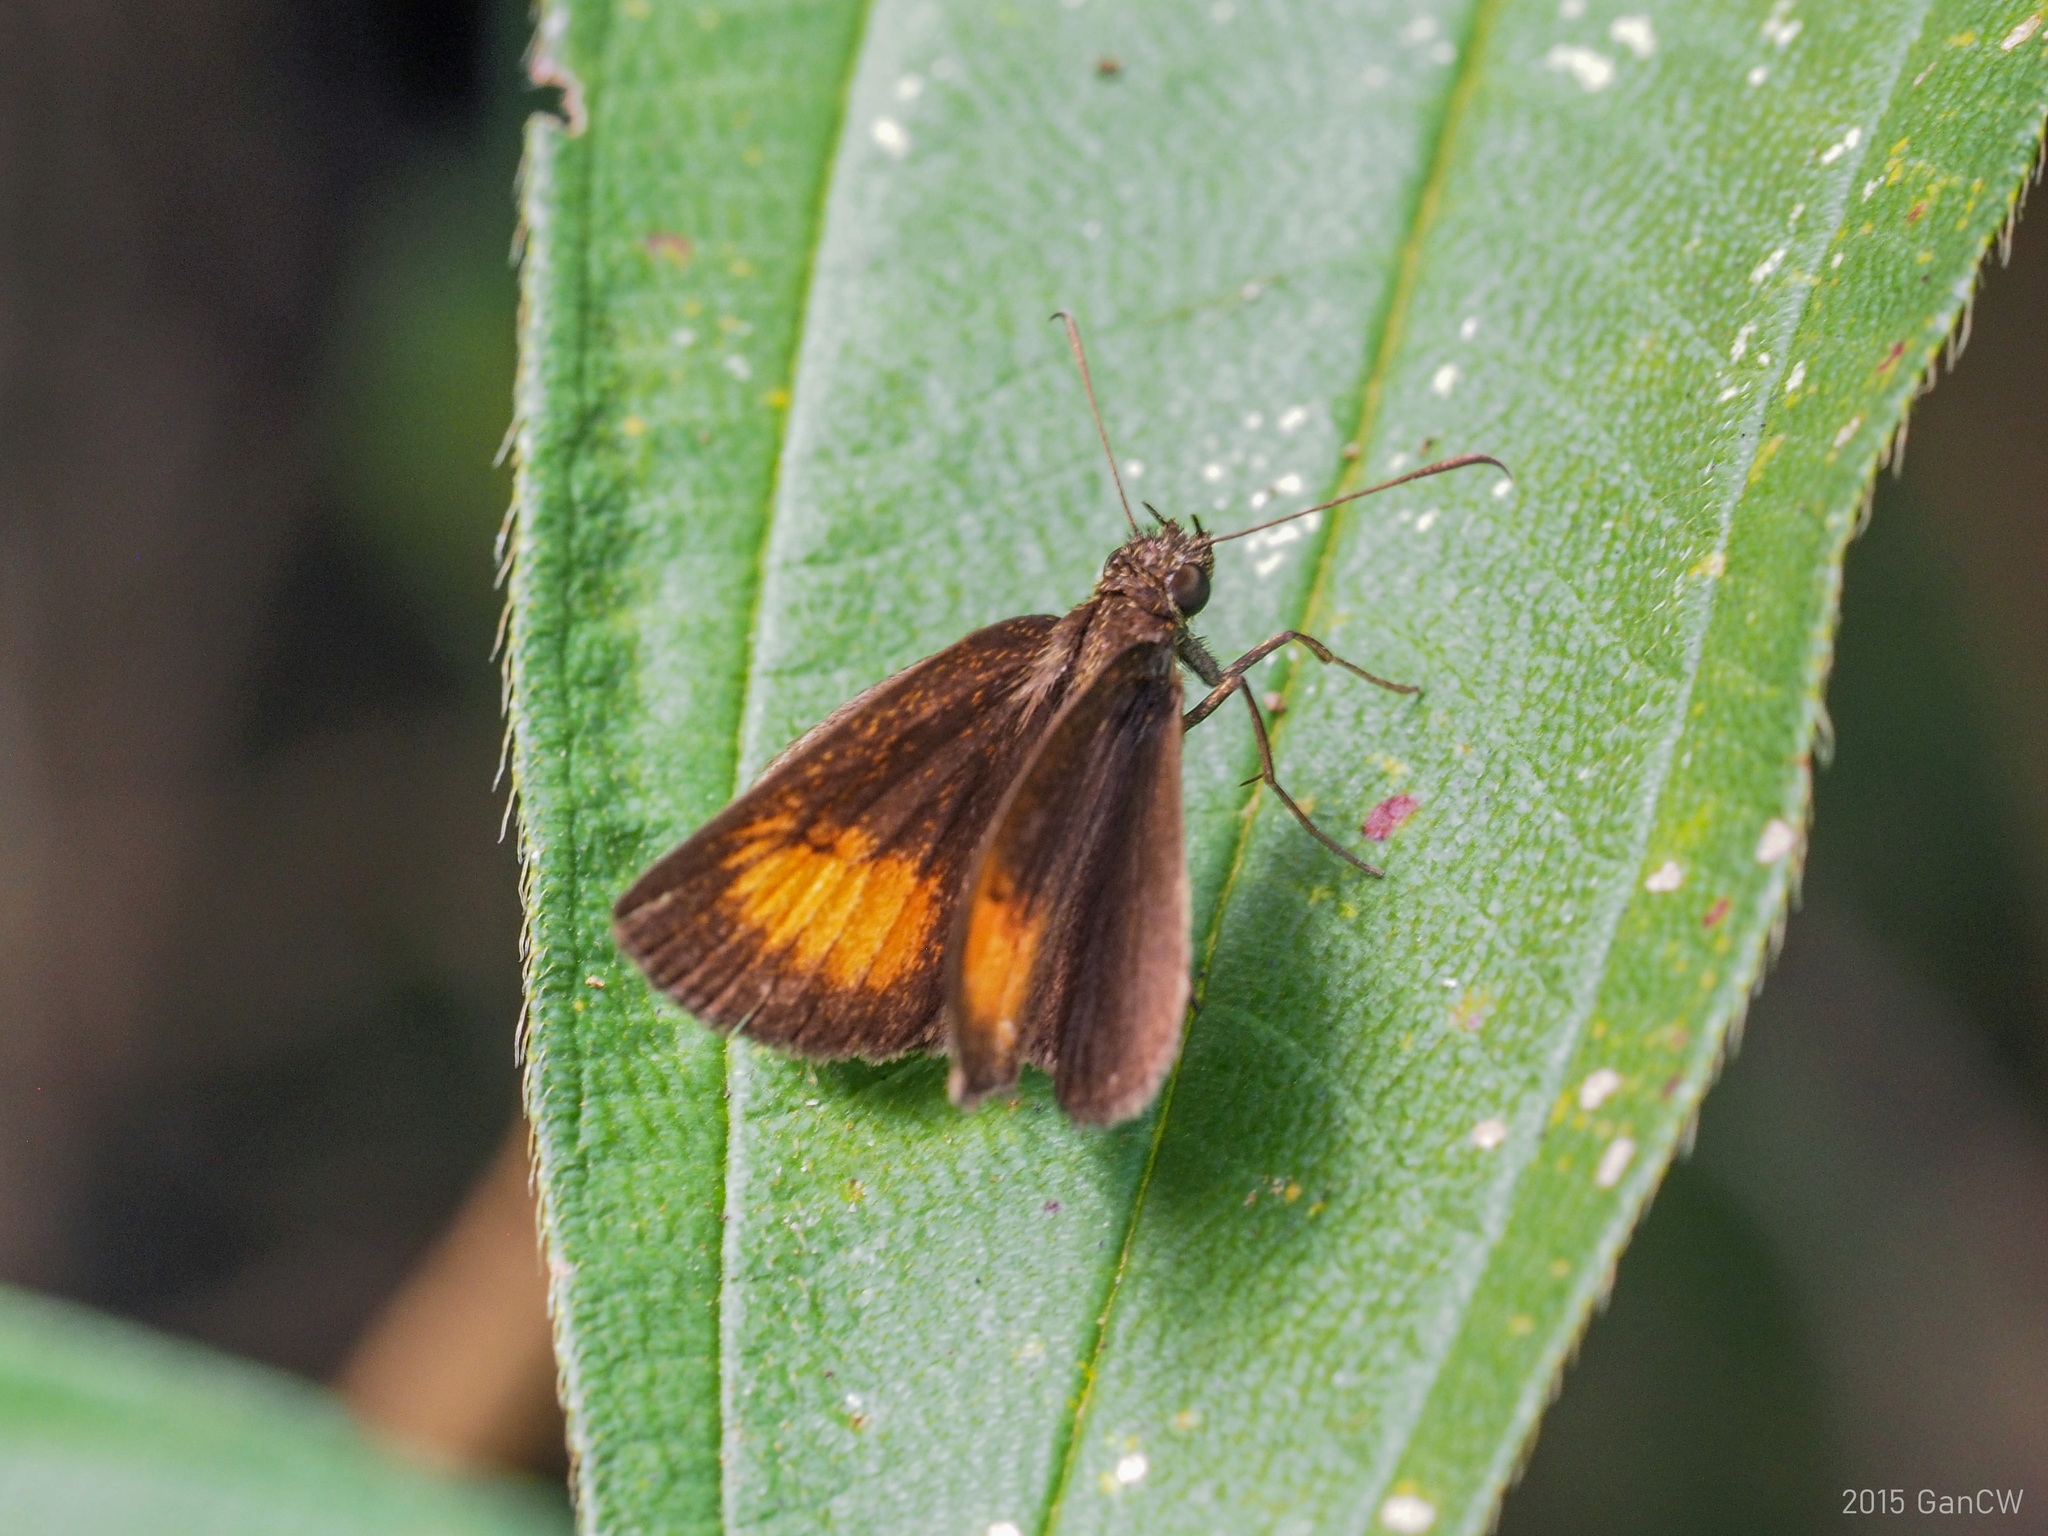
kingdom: Animalia
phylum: Arthropoda
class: Insecta
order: Lepidoptera
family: Hesperiidae
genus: Iambrix
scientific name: Iambrix Idmon obliquans
